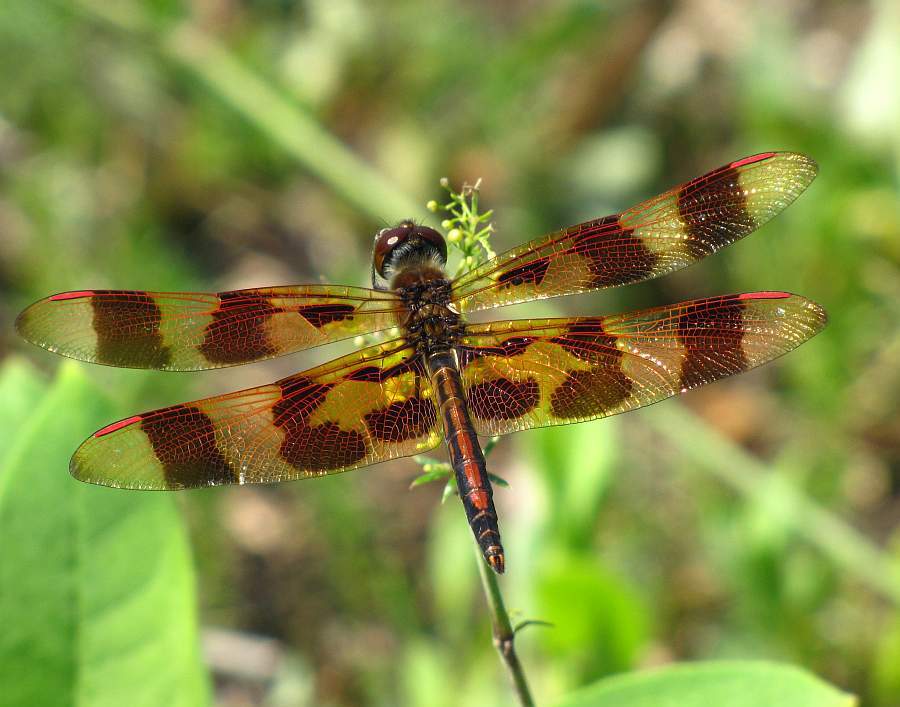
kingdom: Animalia
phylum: Arthropoda
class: Insecta
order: Odonata
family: Libellulidae
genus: Celithemis
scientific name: Celithemis eponina
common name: Halloween pennant
